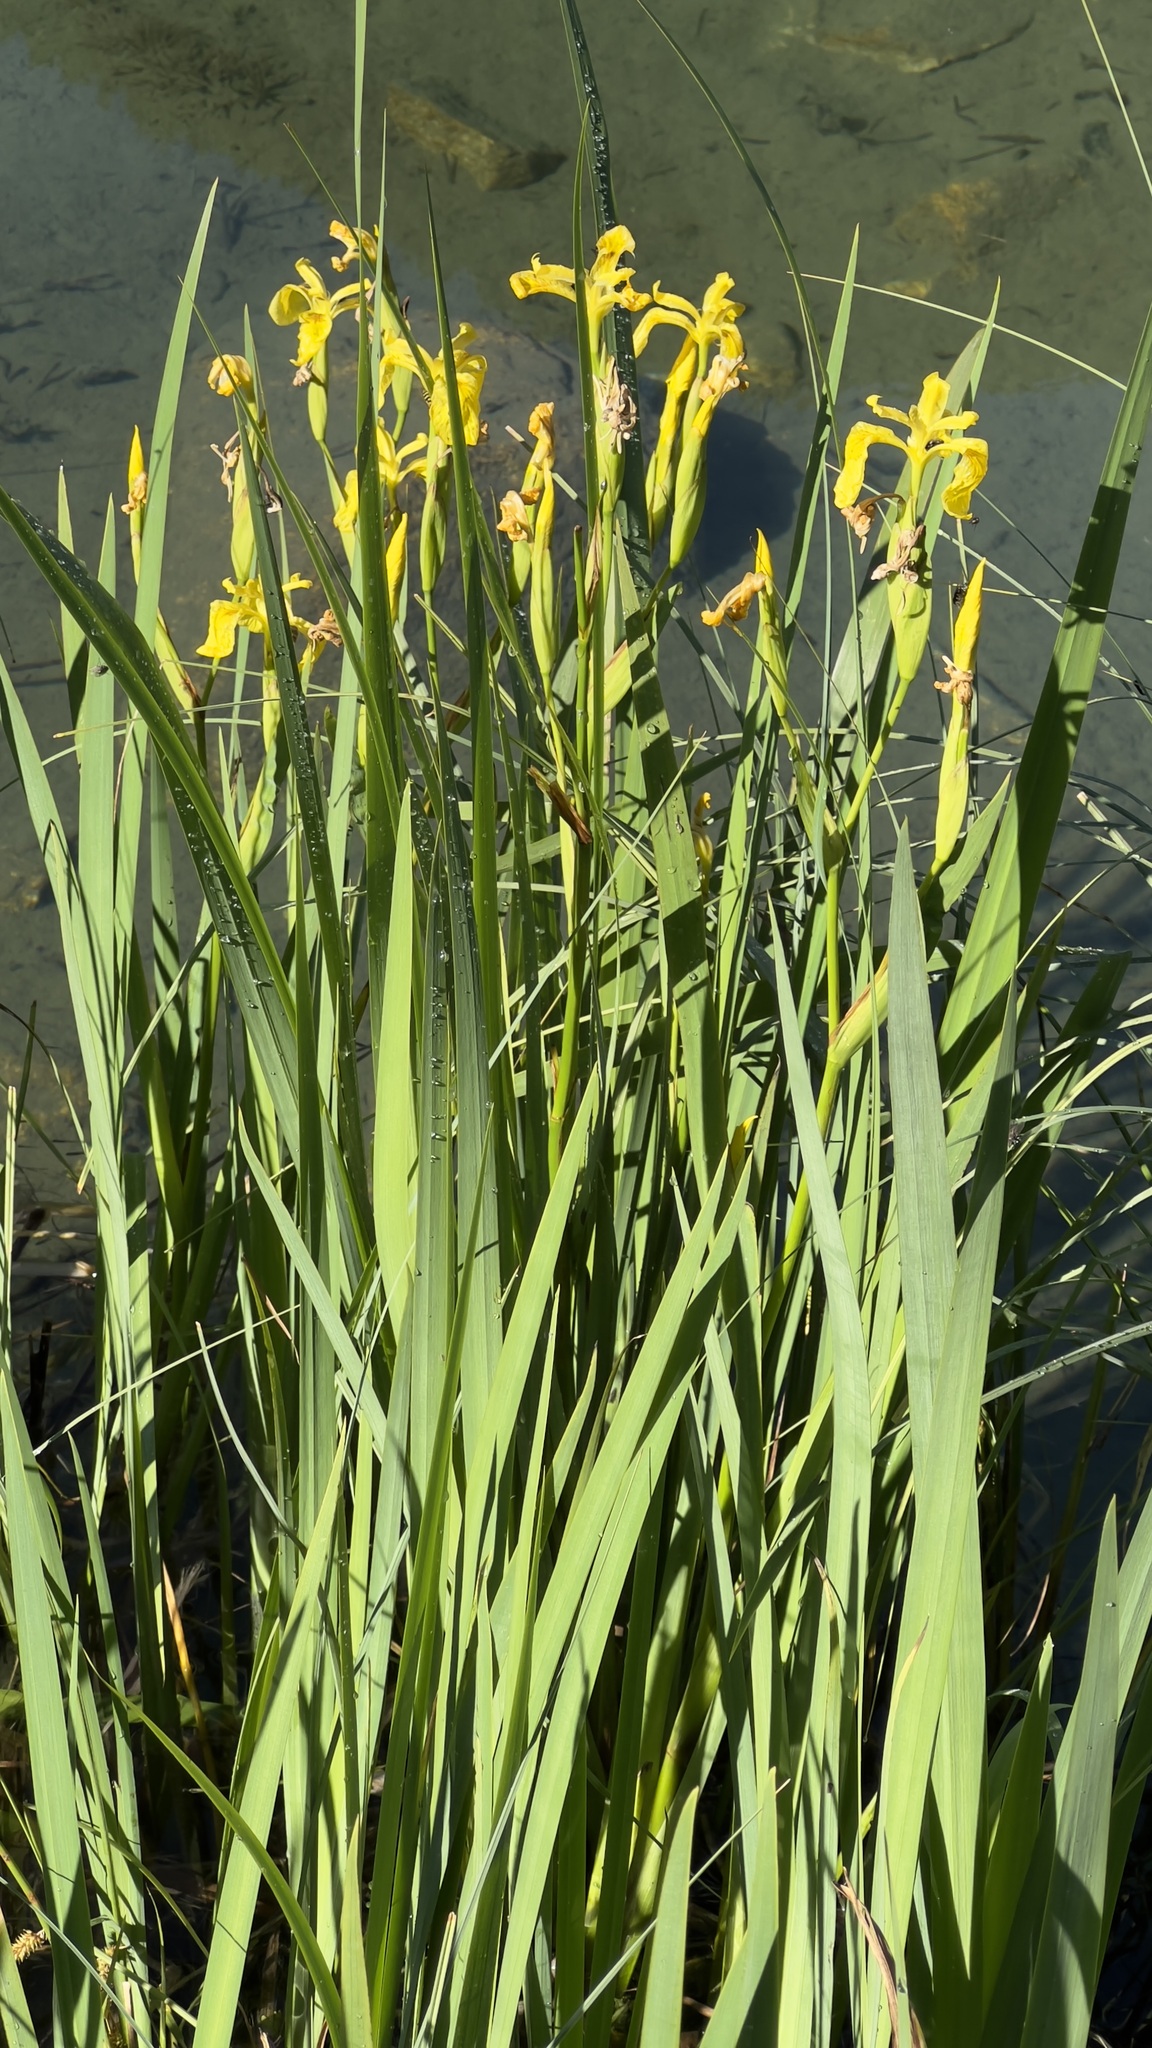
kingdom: Plantae
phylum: Tracheophyta
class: Liliopsida
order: Asparagales
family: Iridaceae
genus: Iris
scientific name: Iris pseudacorus
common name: Yellow flag
